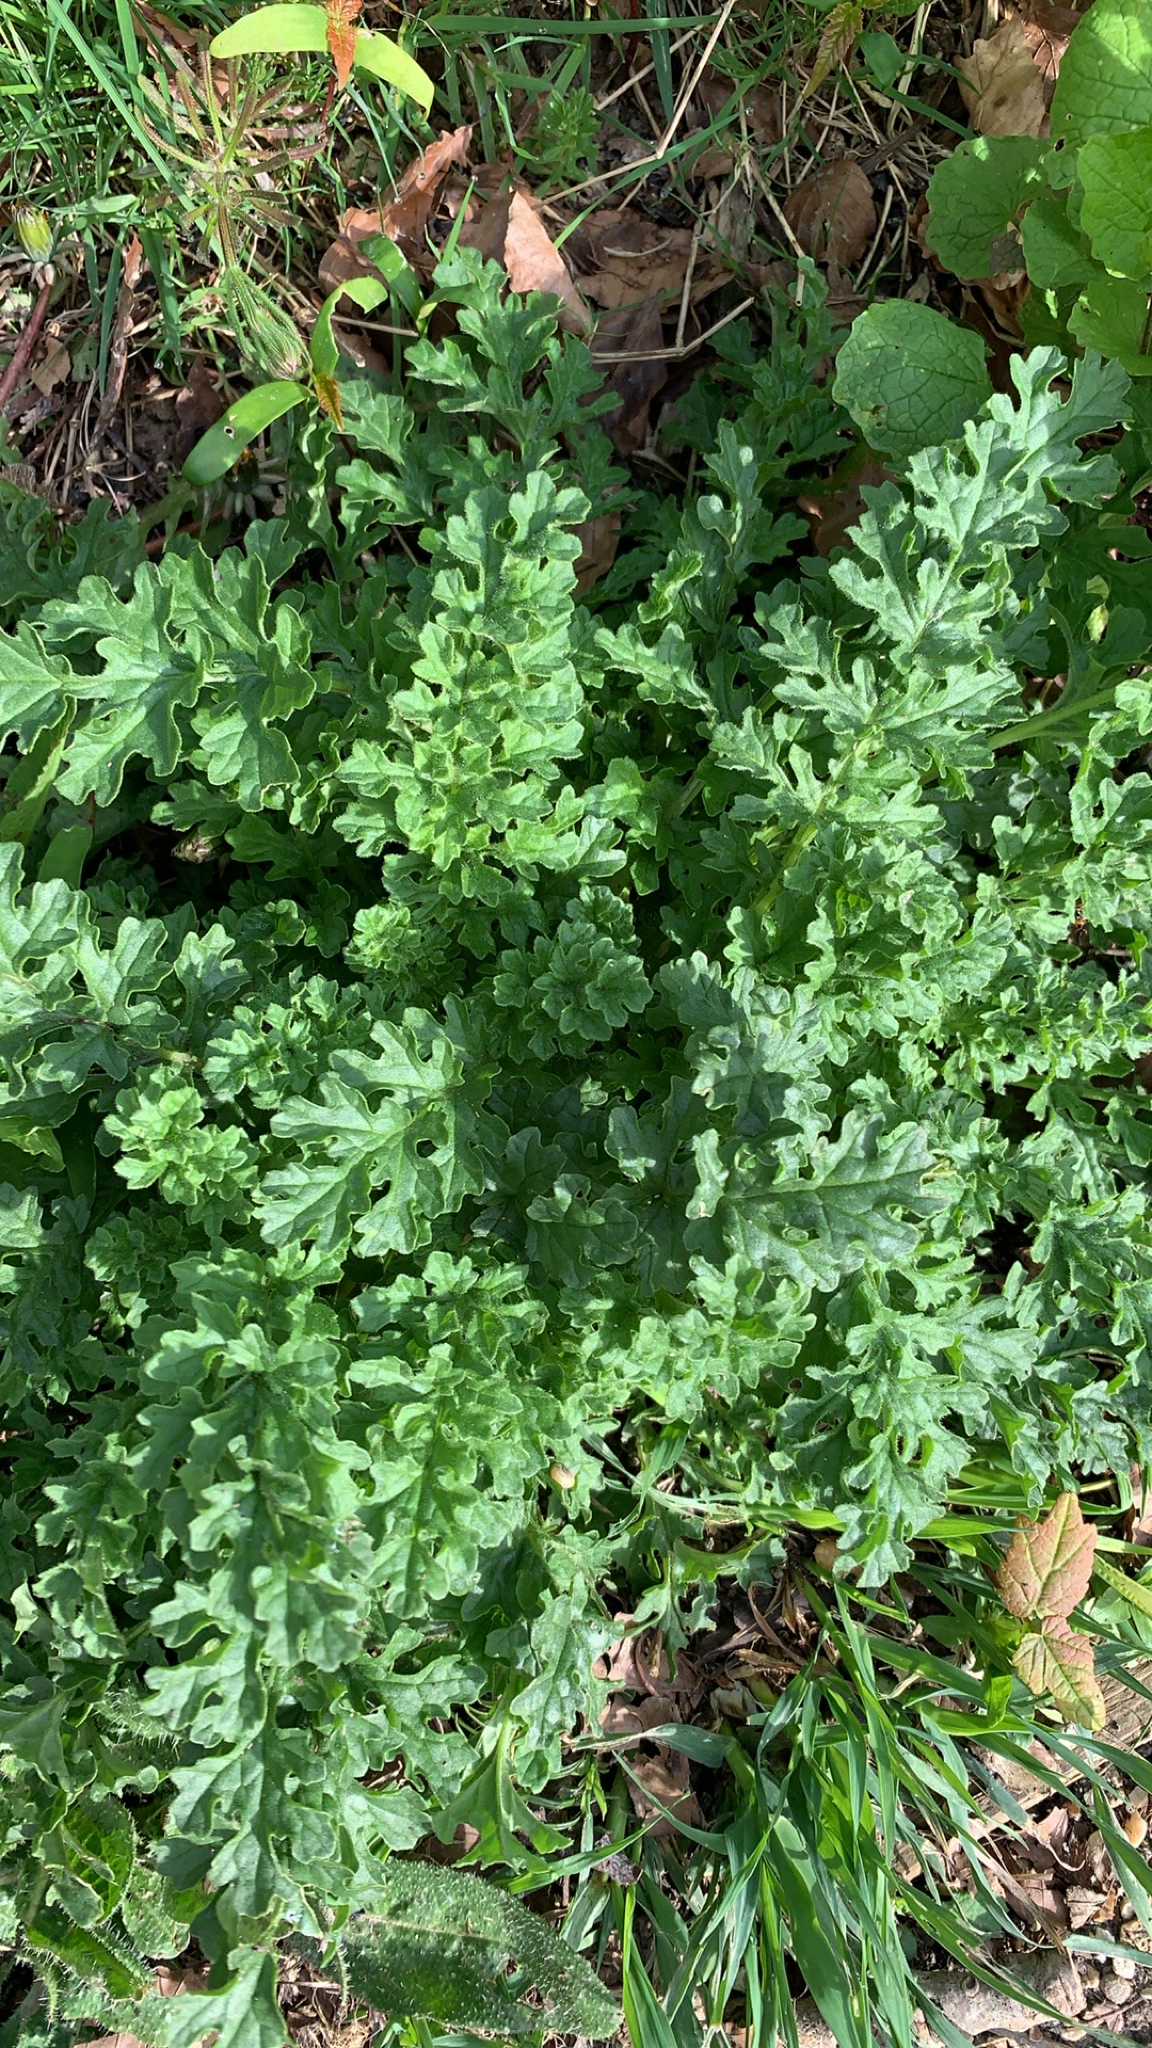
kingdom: Plantae
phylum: Tracheophyta
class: Magnoliopsida
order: Asterales
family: Asteraceae
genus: Jacobaea
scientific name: Jacobaea vulgaris
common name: Stinking willie
